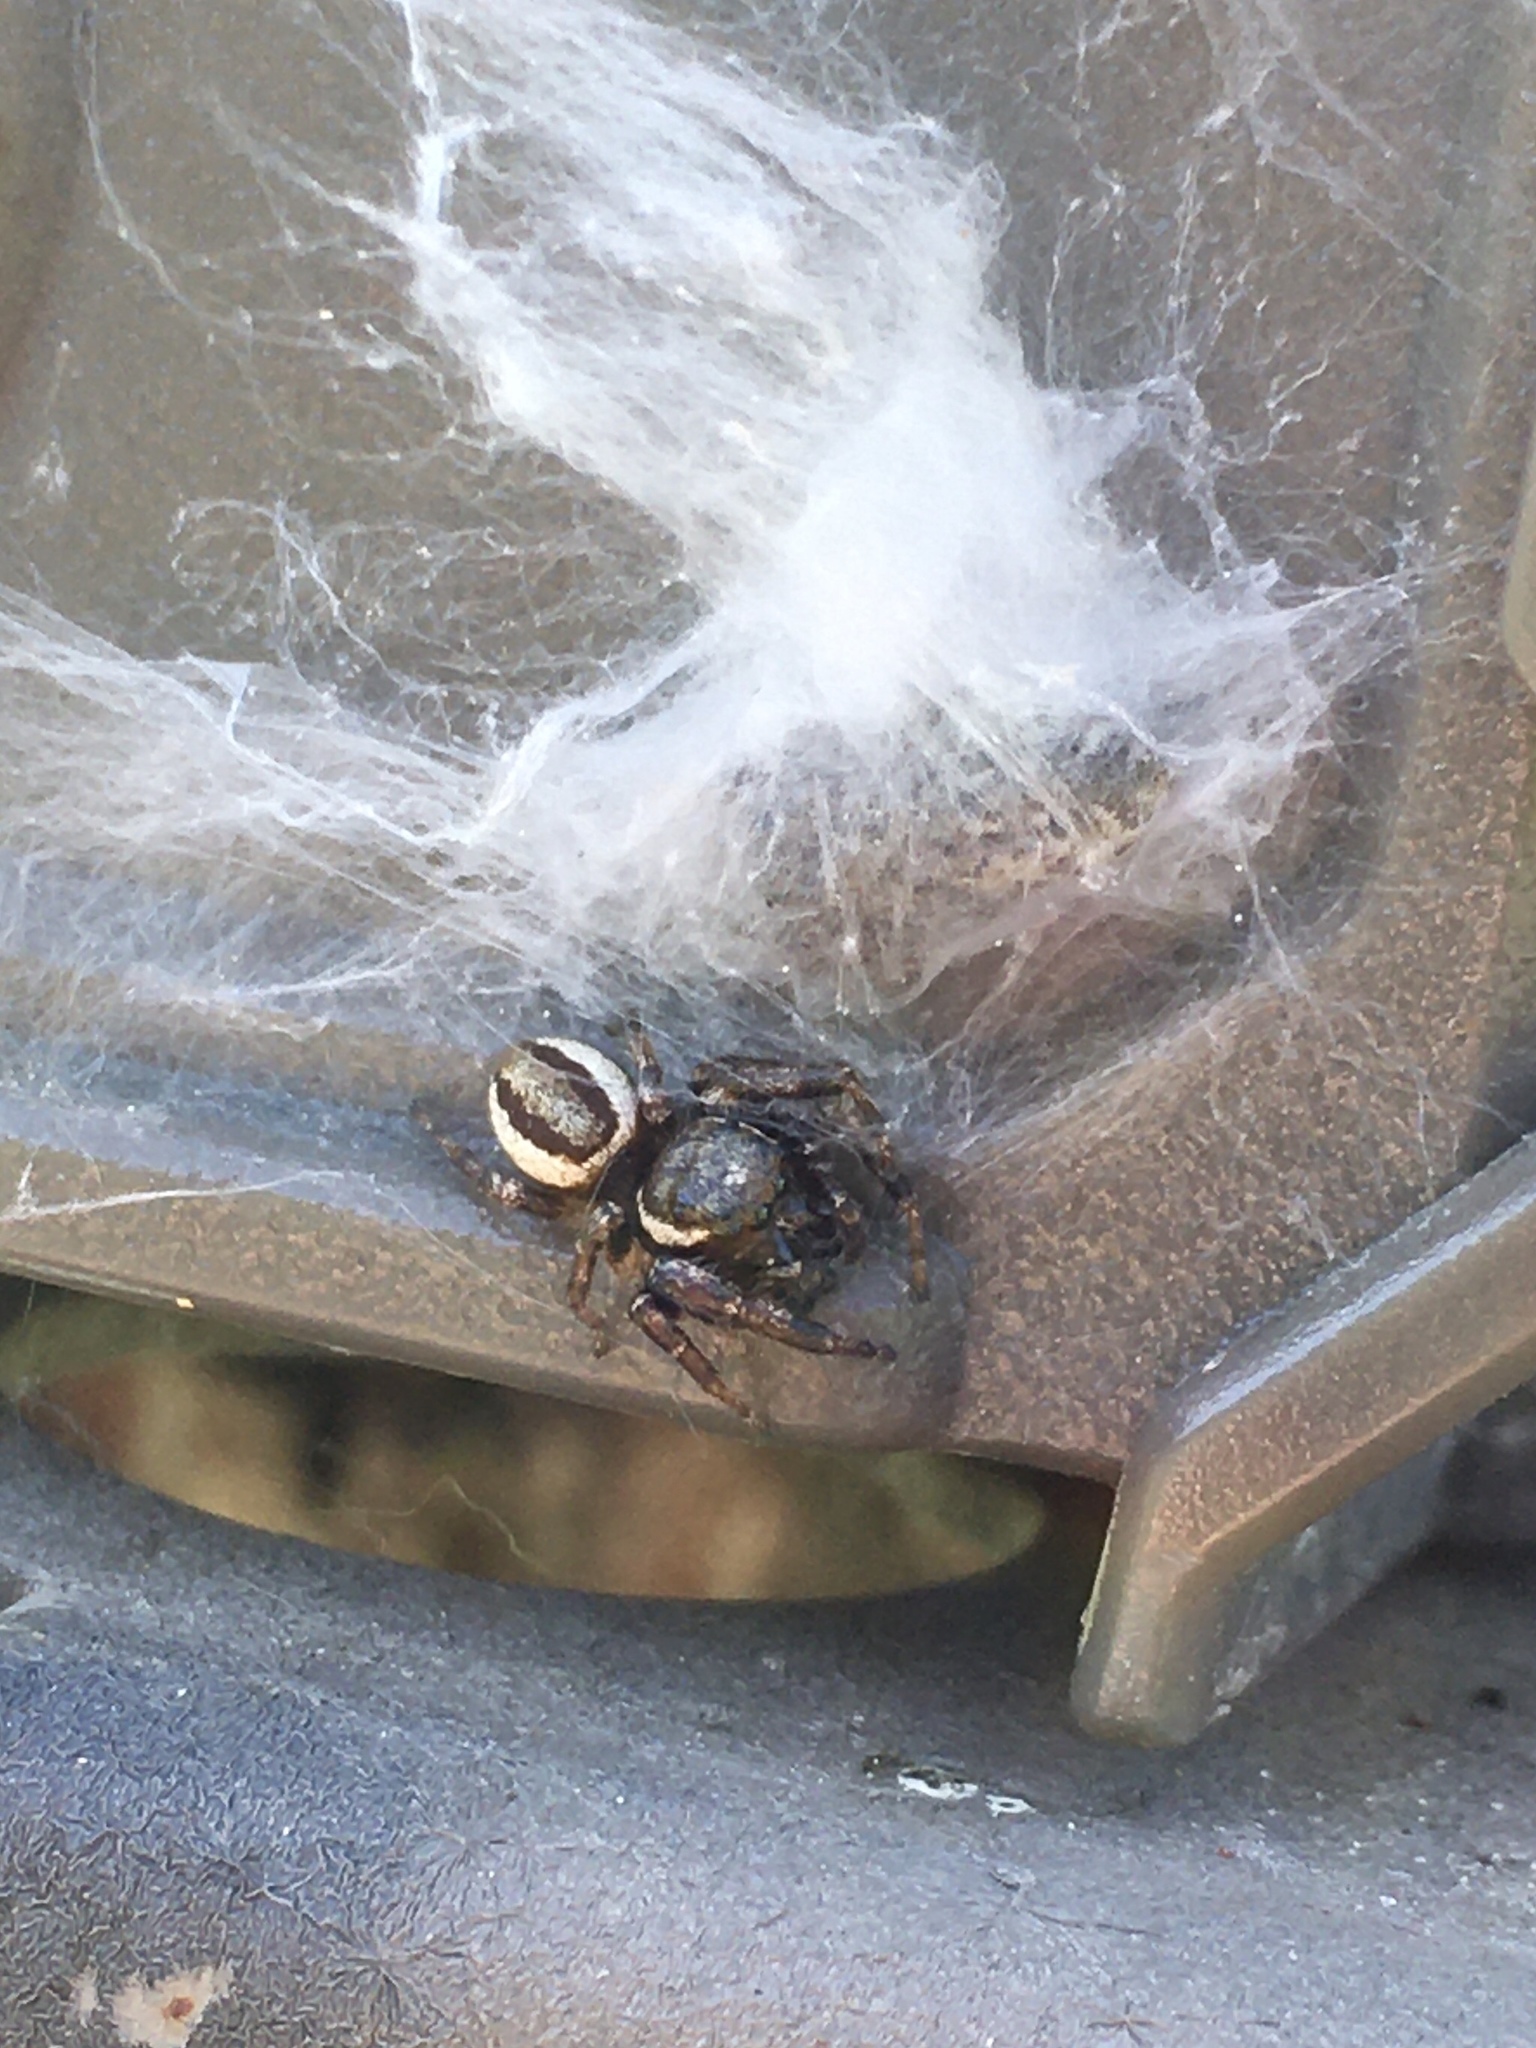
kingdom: Animalia
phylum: Arthropoda
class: Arachnida
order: Araneae
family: Salticidae
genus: Eris
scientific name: Eris militaris
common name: Bronze jumper
